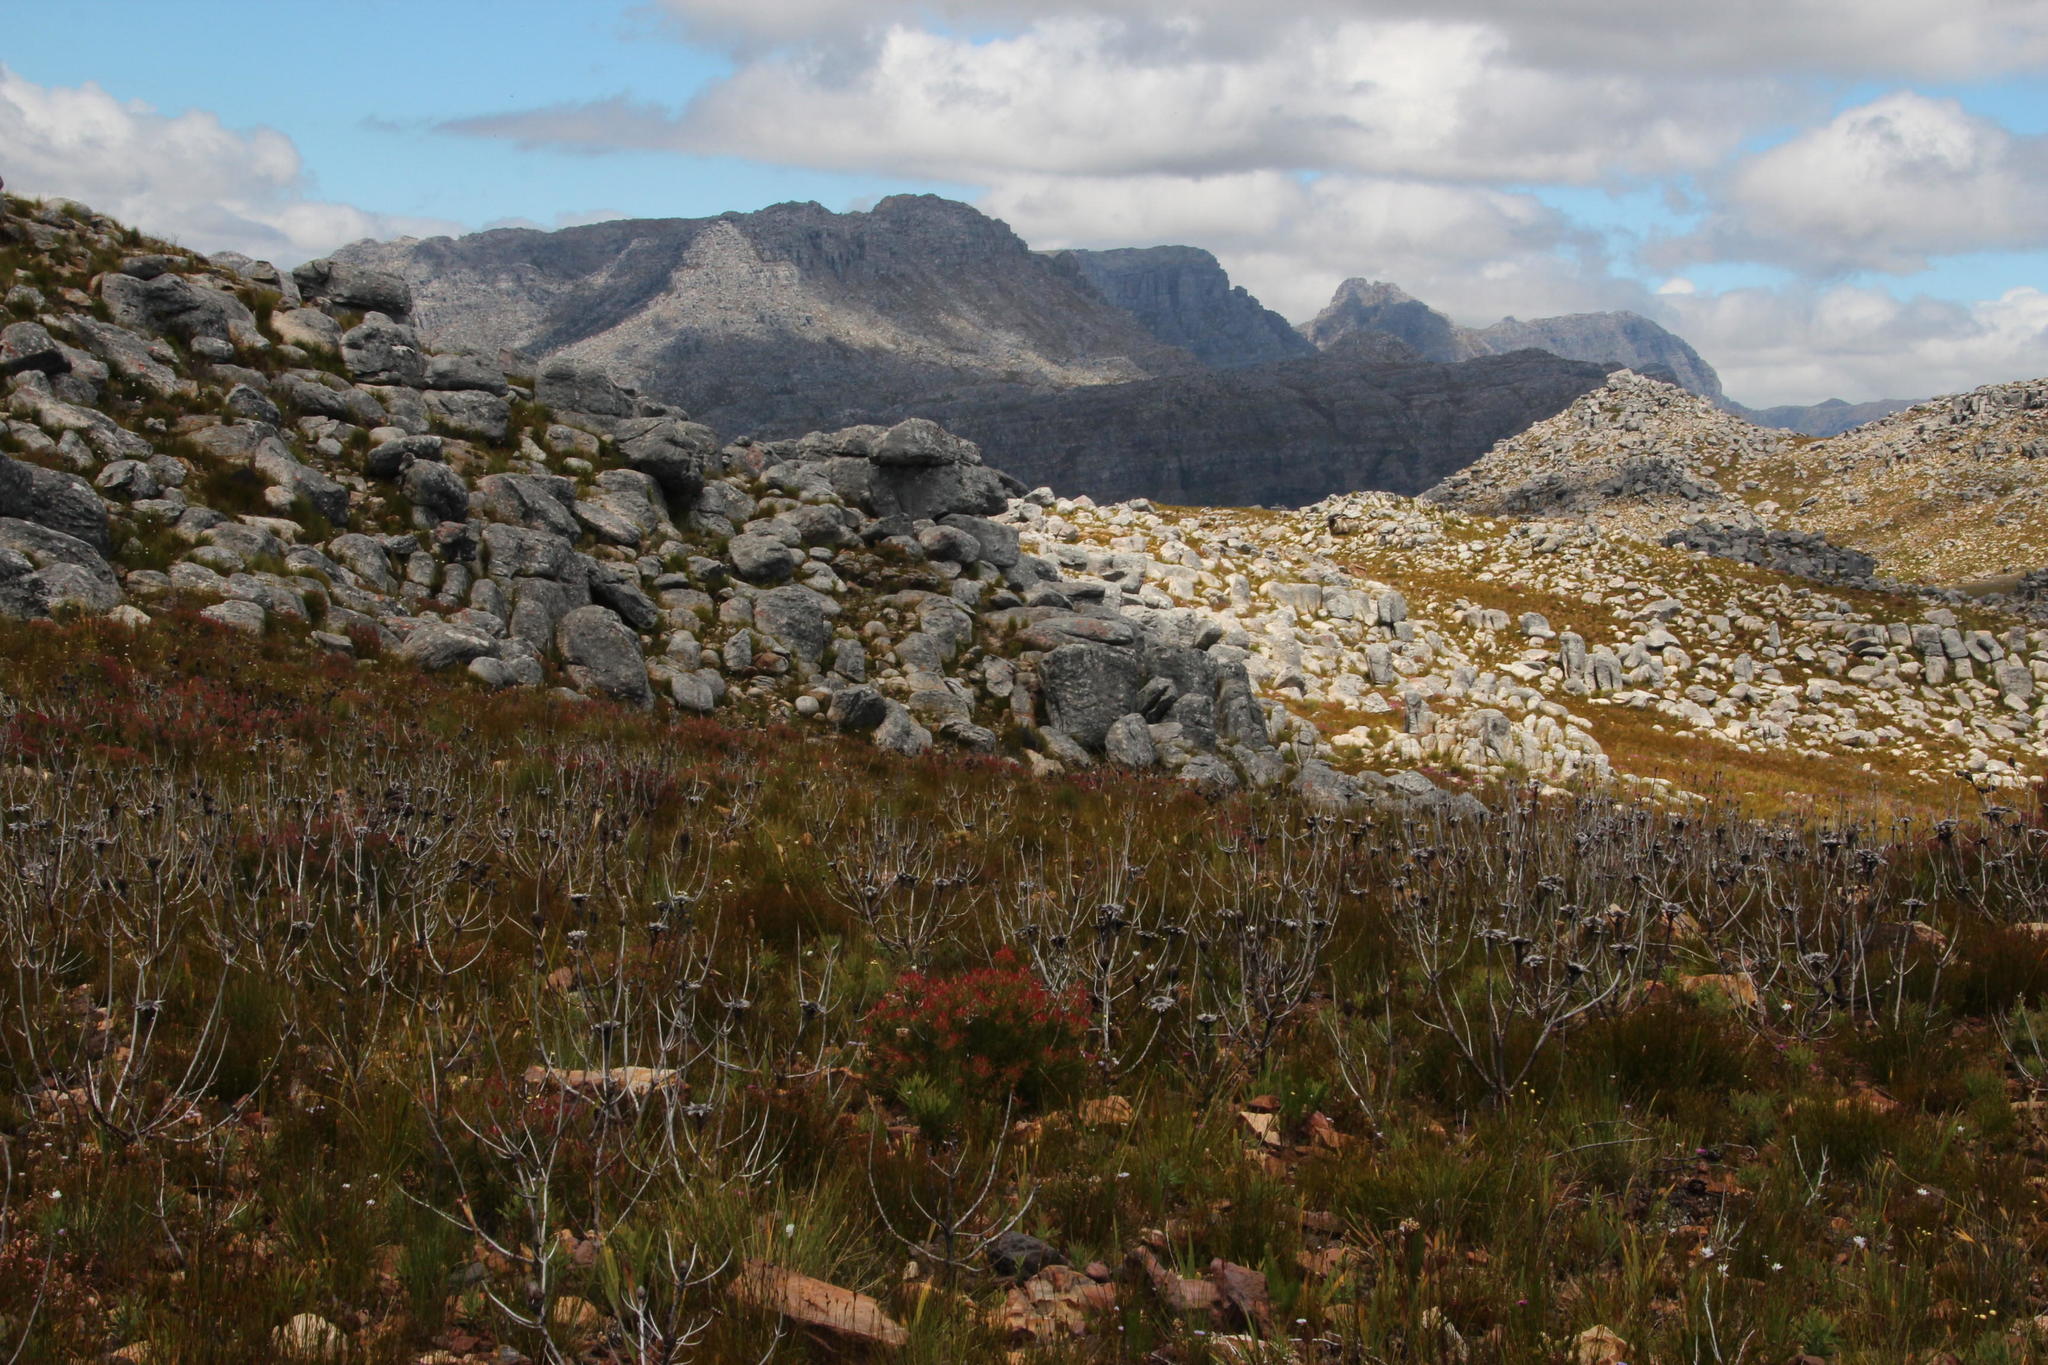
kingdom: Plantae
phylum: Tracheophyta
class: Magnoliopsida
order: Proteales
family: Proteaceae
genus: Protea
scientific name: Protea repens
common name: Sugarbush
